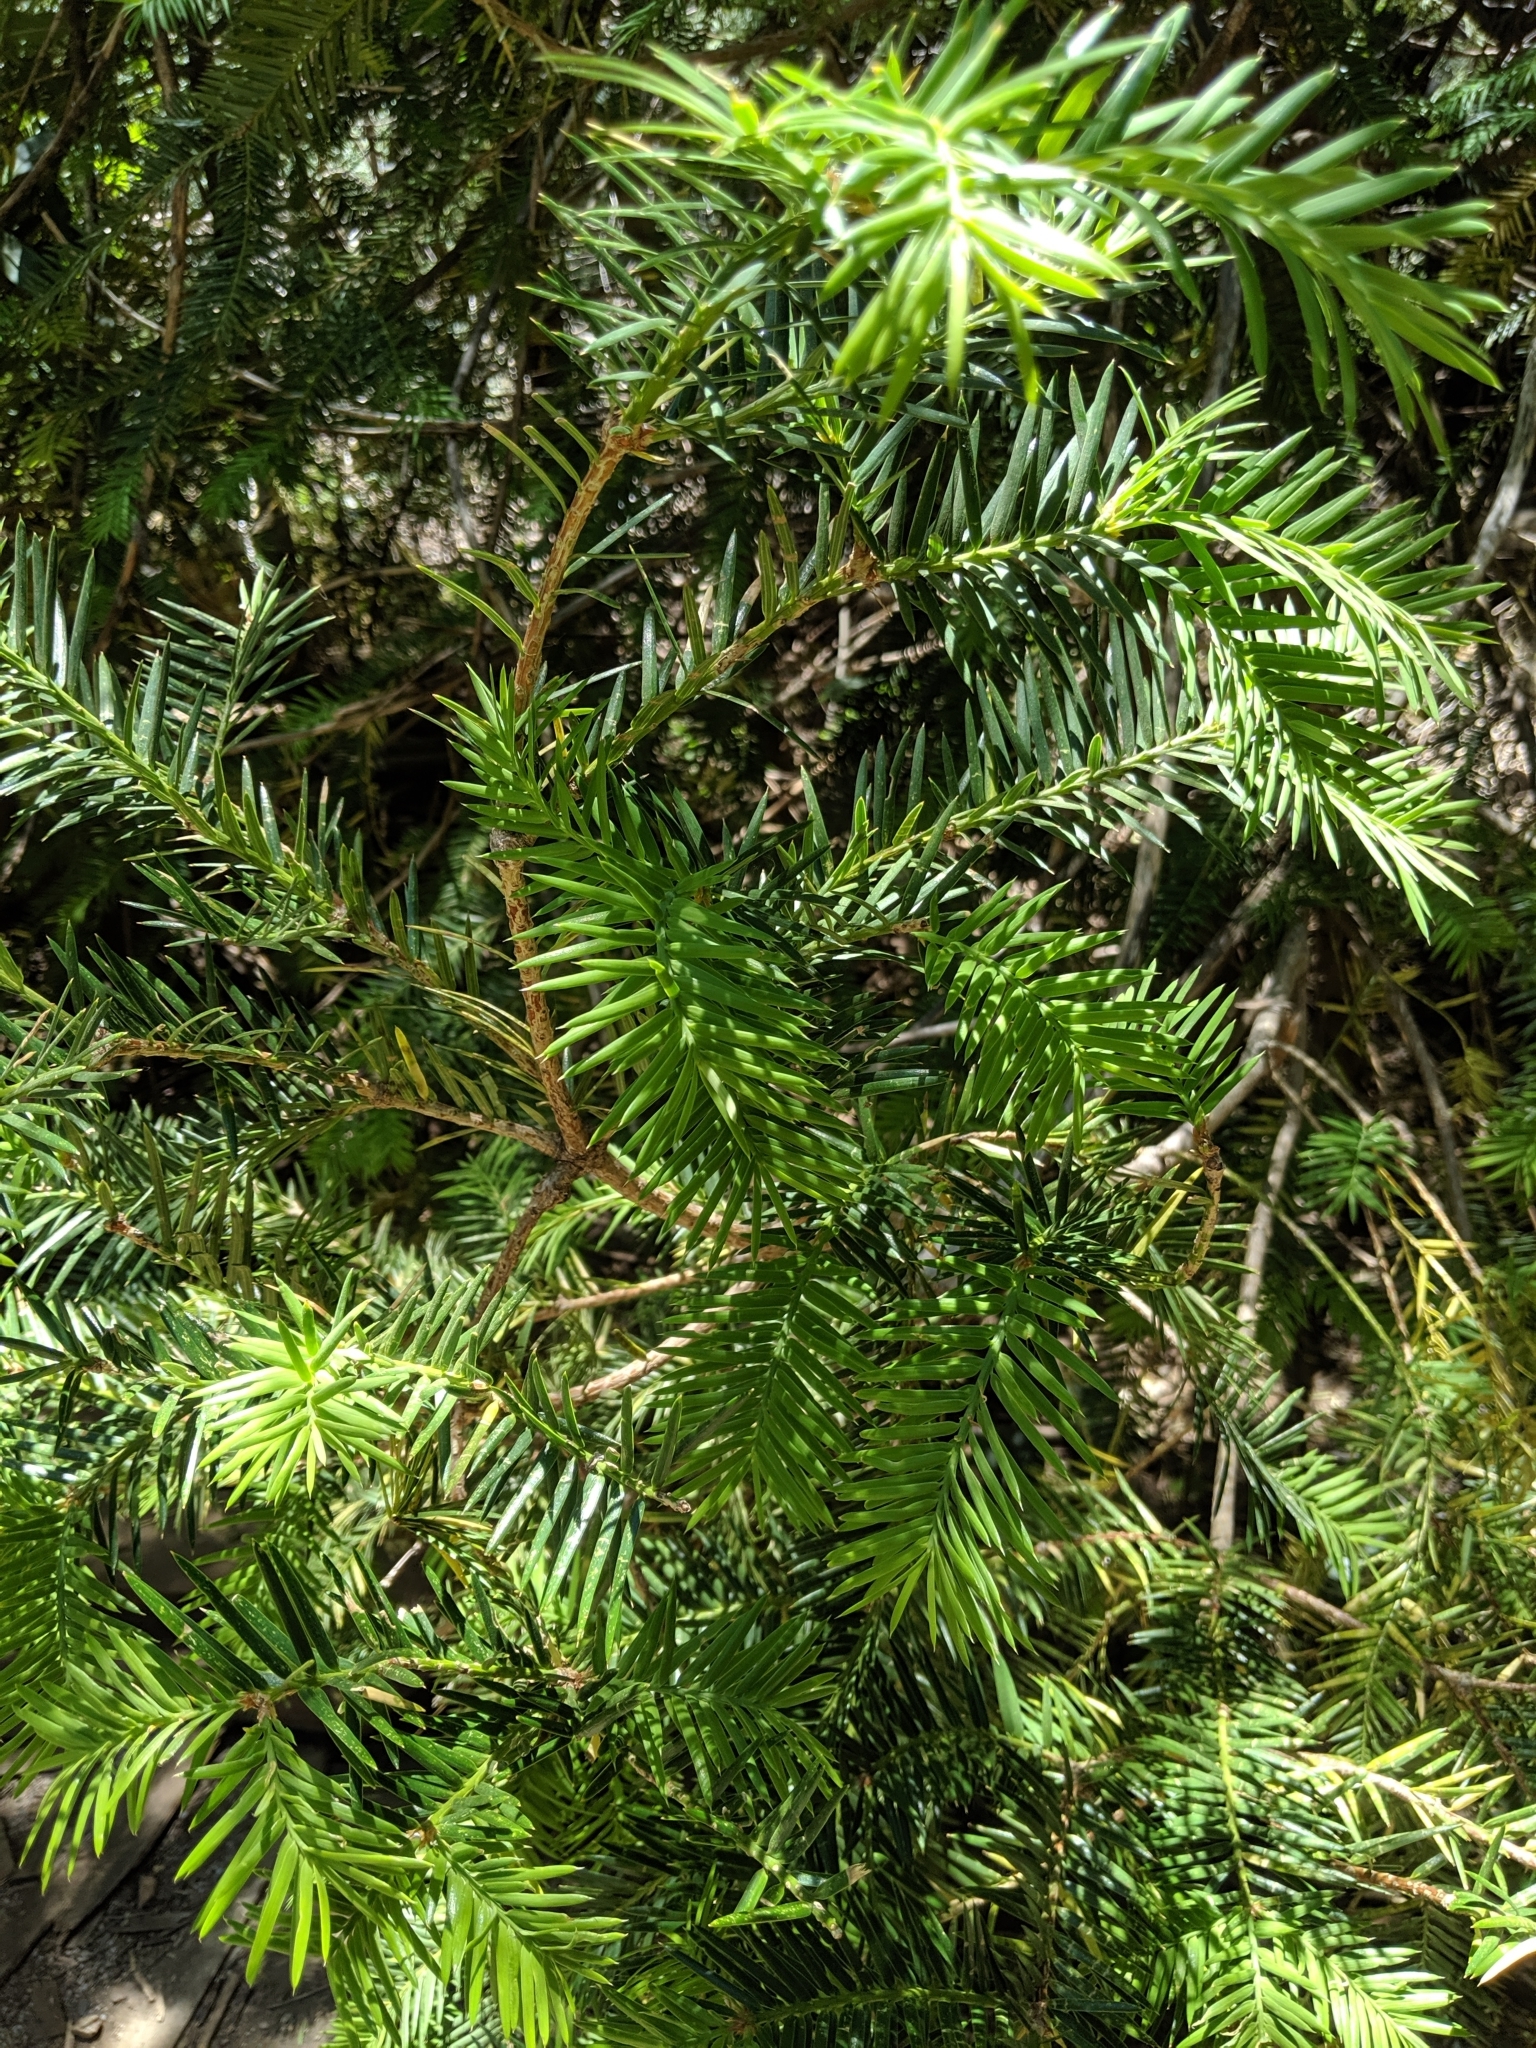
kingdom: Plantae
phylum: Tracheophyta
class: Pinopsida
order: Pinales
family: Taxaceae
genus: Torreya
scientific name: Torreya californica
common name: California torreya
